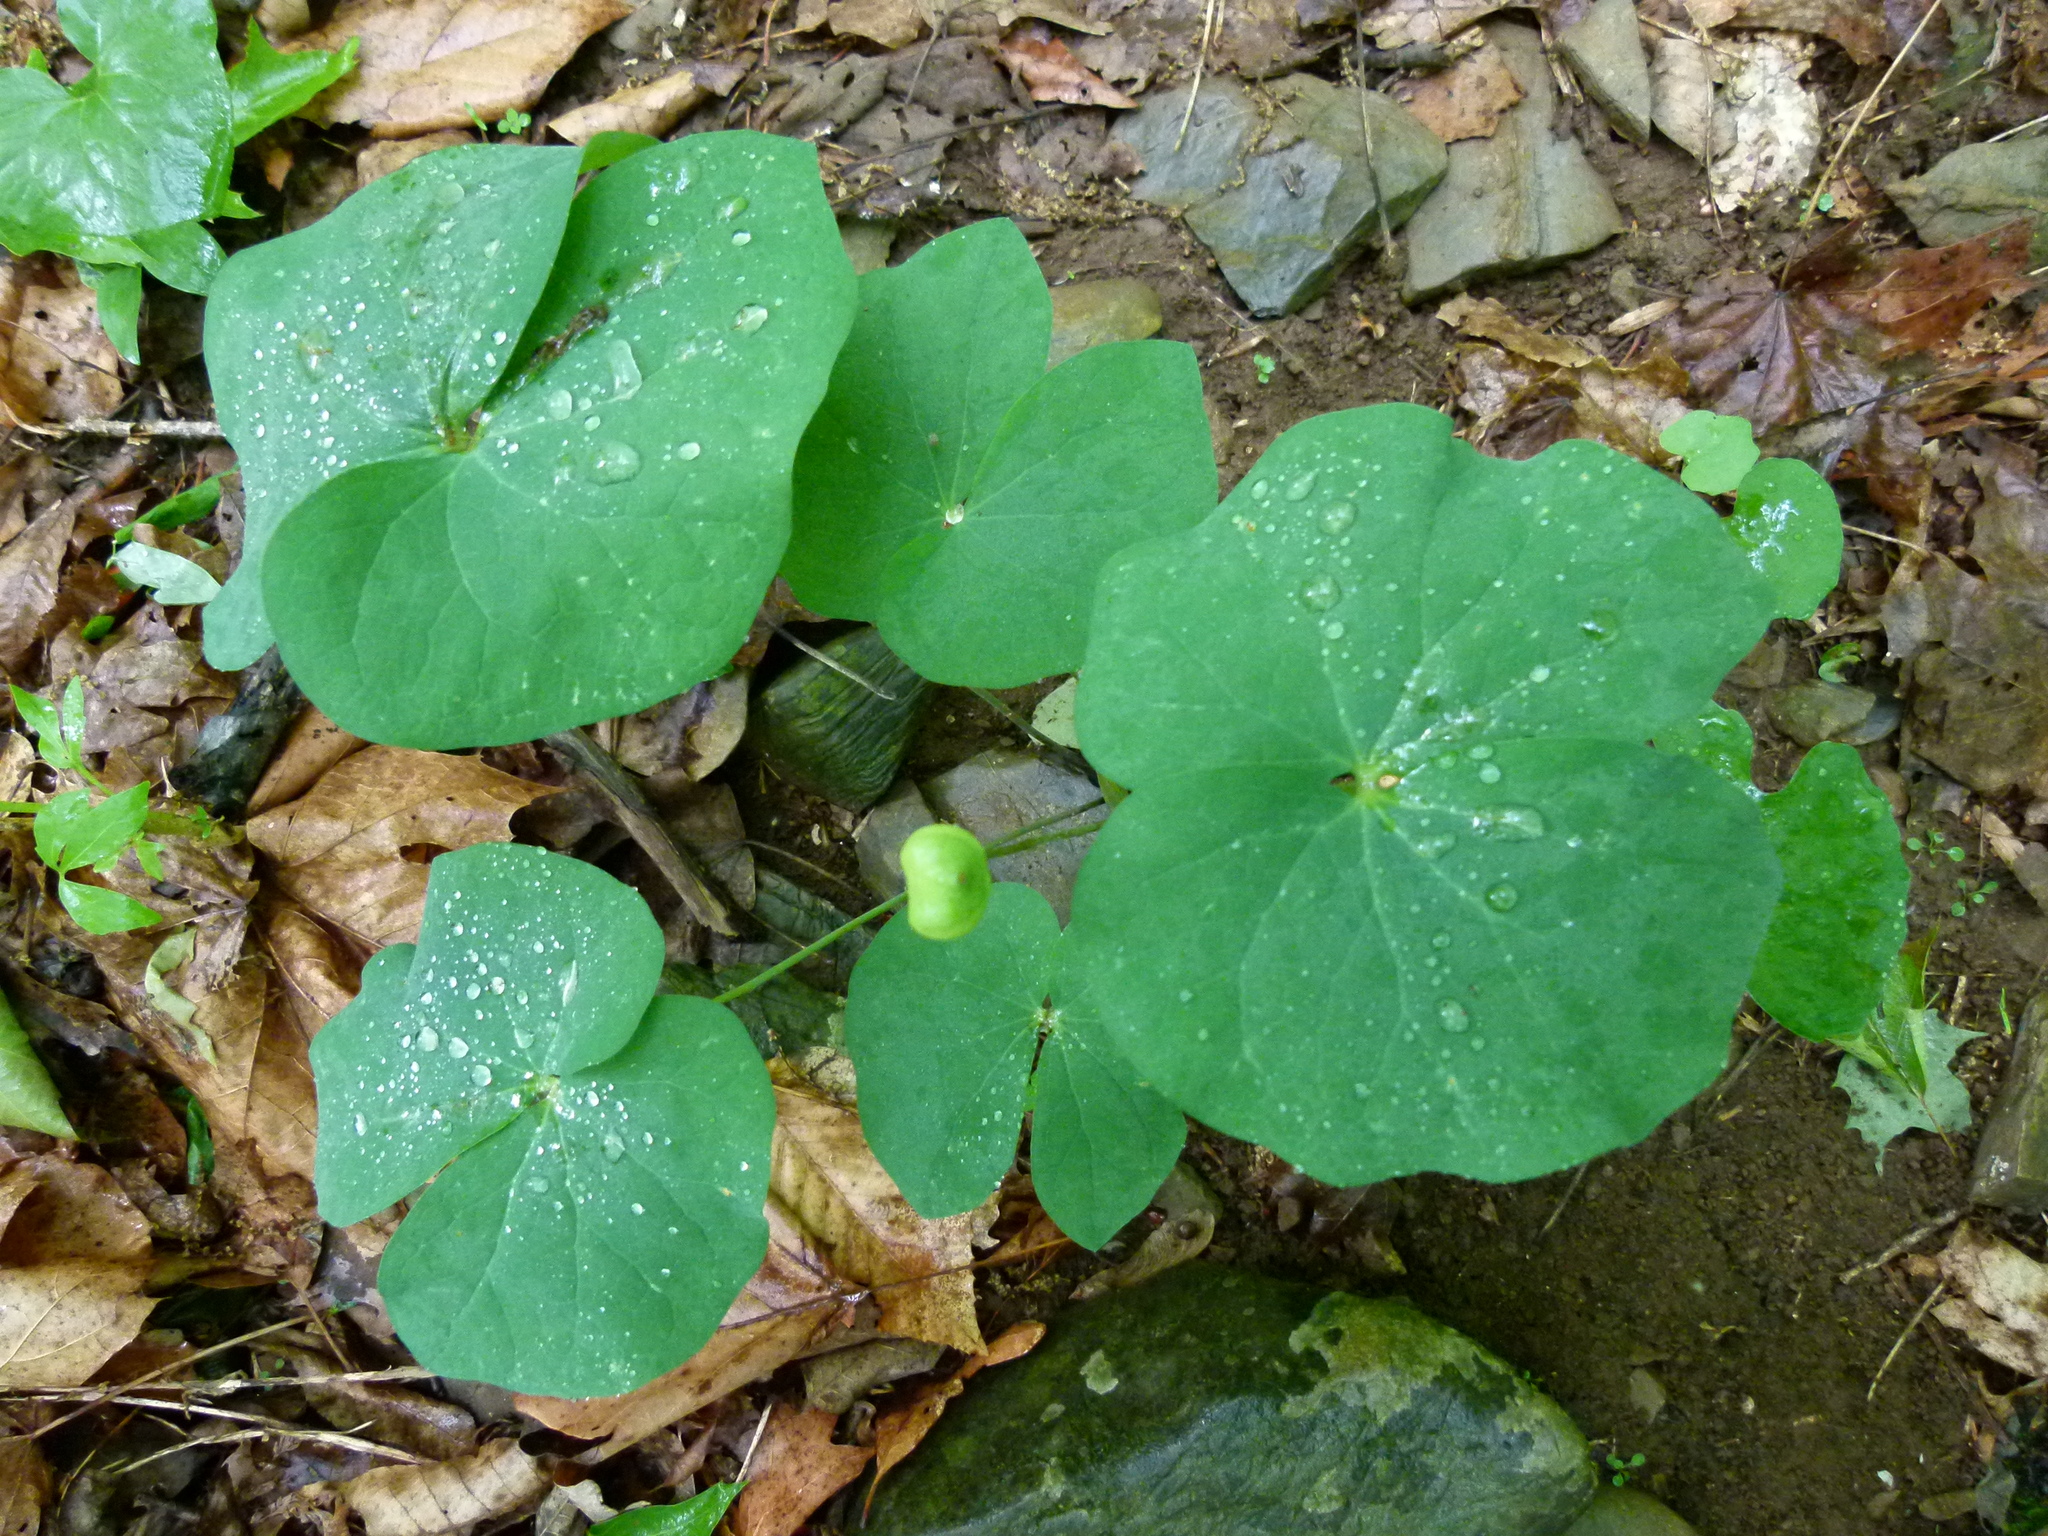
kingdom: Plantae
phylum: Tracheophyta
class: Magnoliopsida
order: Ranunculales
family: Berberidaceae
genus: Jeffersonia
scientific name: Jeffersonia diphylla
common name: Rheumatism-root
